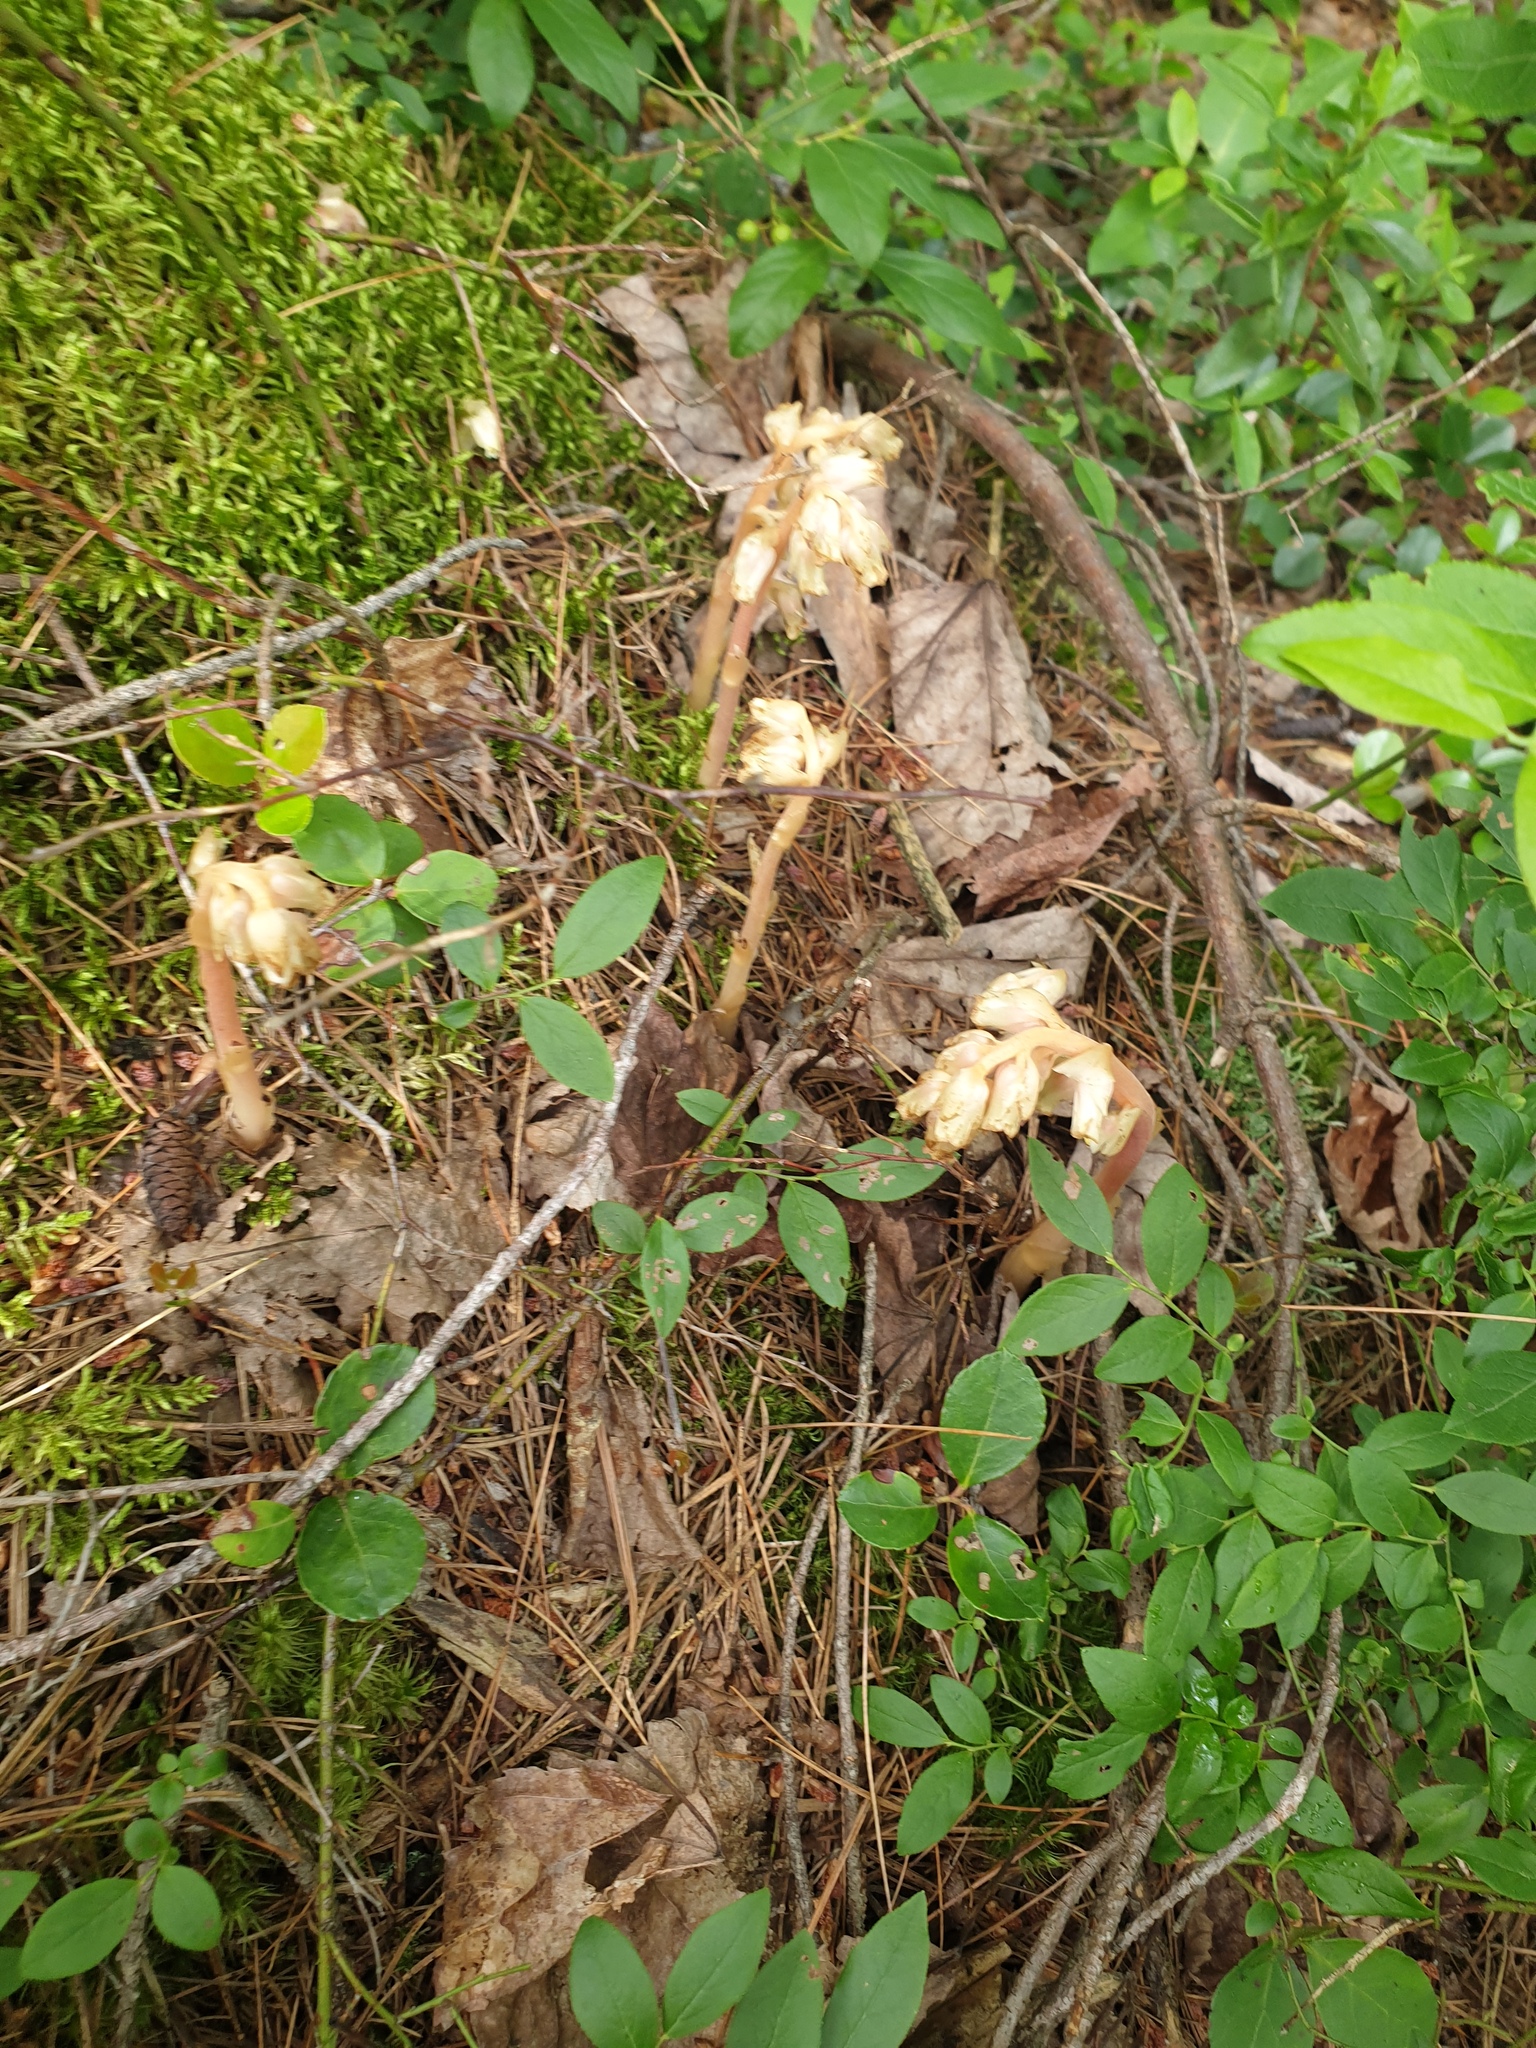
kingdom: Plantae
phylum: Tracheophyta
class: Magnoliopsida
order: Ericales
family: Ericaceae
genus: Hypopitys
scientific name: Hypopitys monotropa
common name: Yellow bird's-nest
